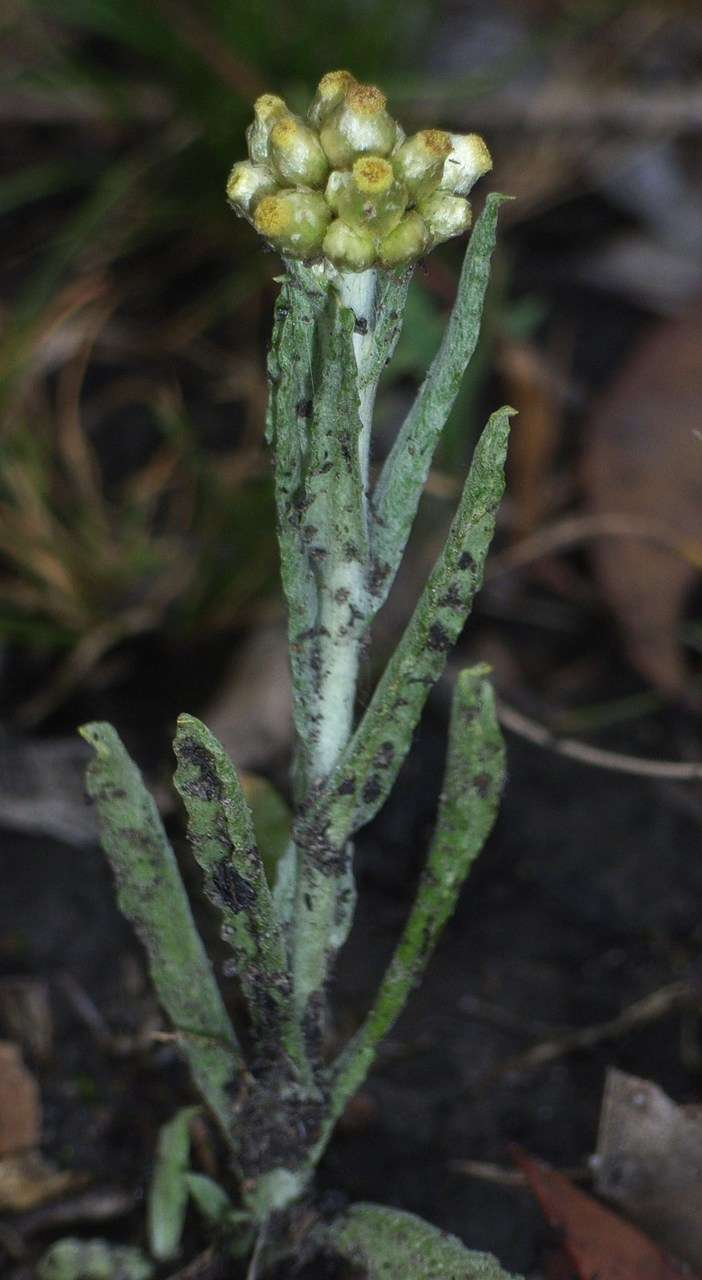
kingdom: Plantae
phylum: Tracheophyta
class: Magnoliopsida
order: Asterales
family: Asteraceae
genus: Helichrysum
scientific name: Helichrysum luteoalbum
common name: Daisy
